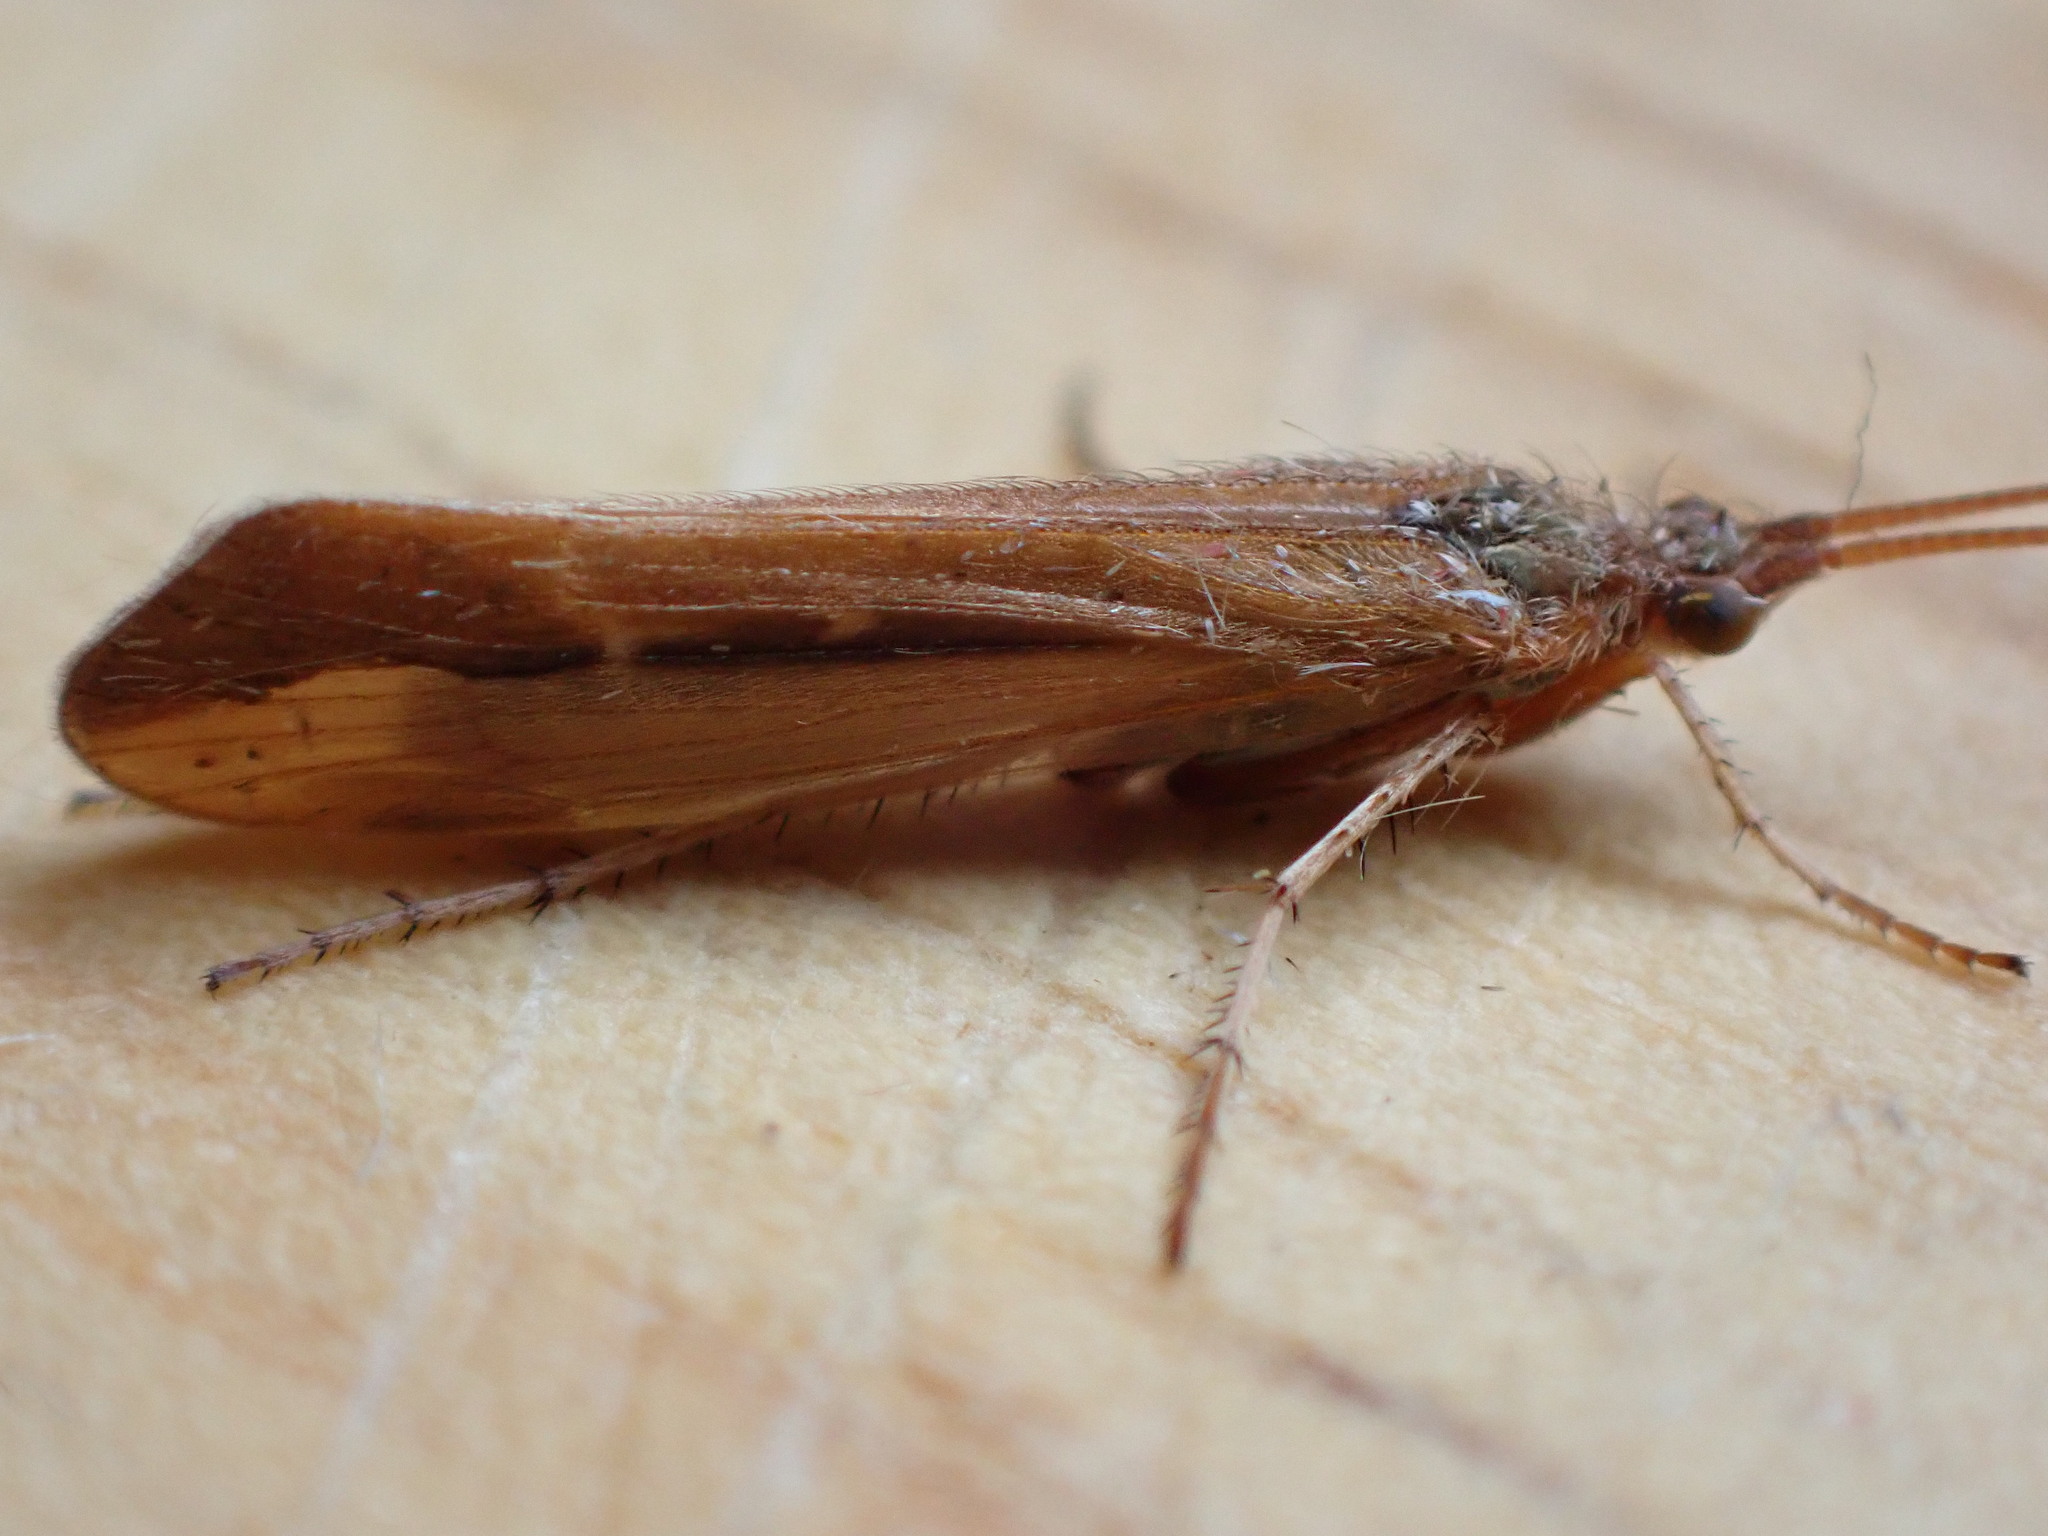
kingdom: Animalia
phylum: Arthropoda
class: Insecta
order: Trichoptera
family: Limnephilidae
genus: Limnephilus
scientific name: Limnephilus vittatus
